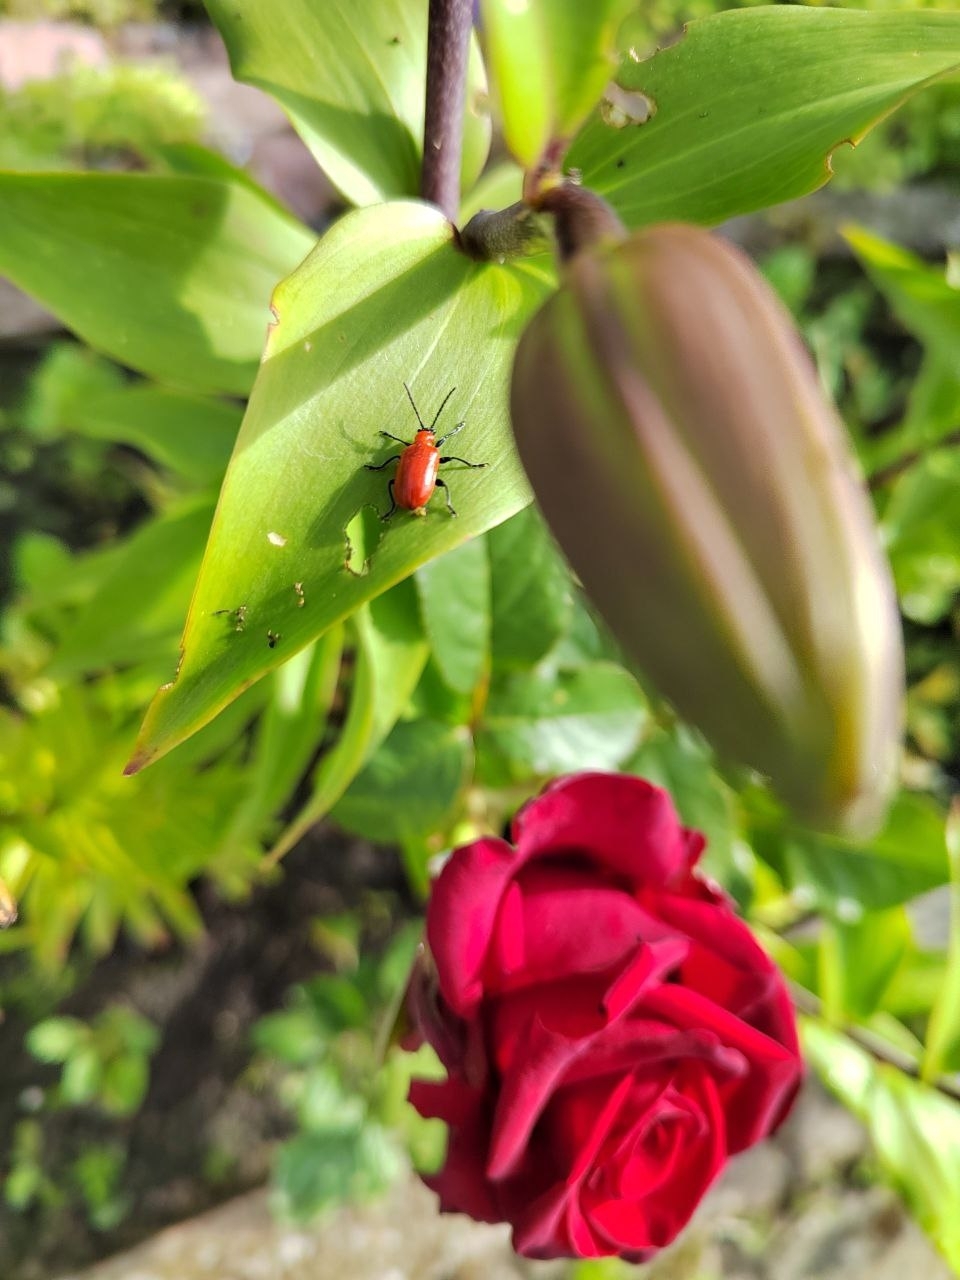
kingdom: Animalia
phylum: Arthropoda
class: Insecta
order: Coleoptera
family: Chrysomelidae
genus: Lilioceris
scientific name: Lilioceris lilii
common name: Lily beetle
